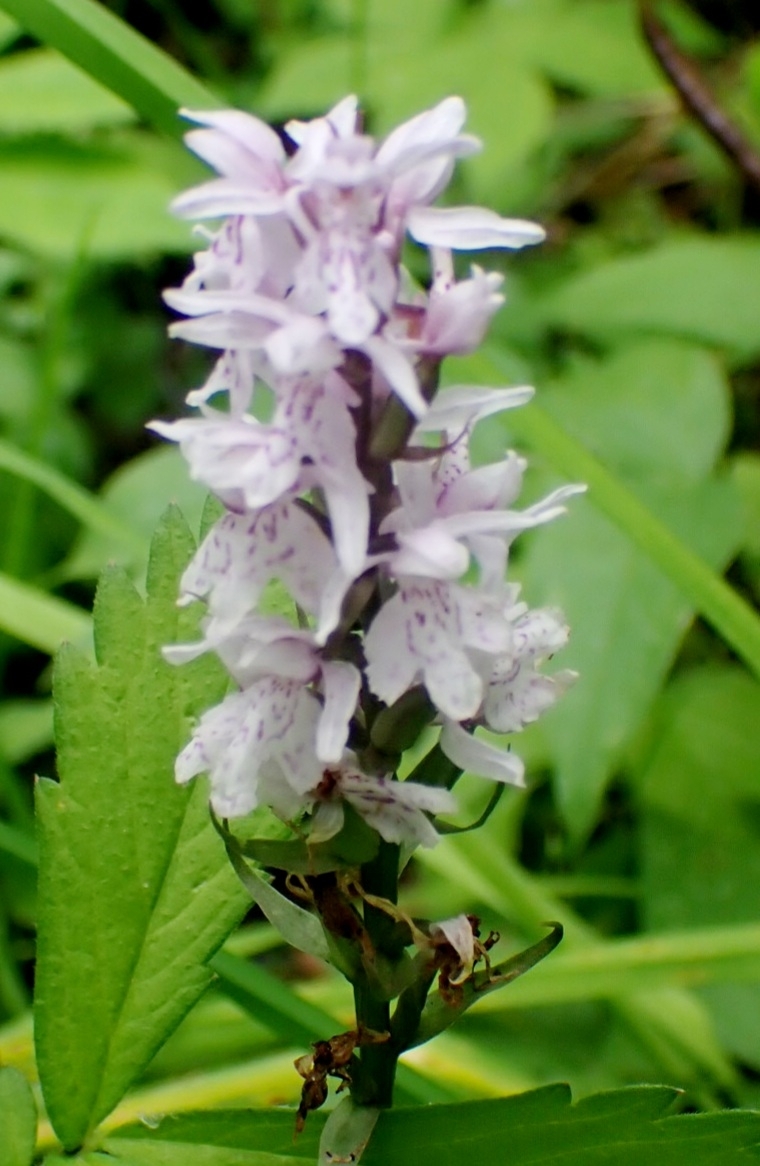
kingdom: Plantae
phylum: Tracheophyta
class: Liliopsida
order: Asparagales
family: Orchidaceae
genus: Dactylorhiza
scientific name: Dactylorhiza maculata
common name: Heath spotted-orchid
